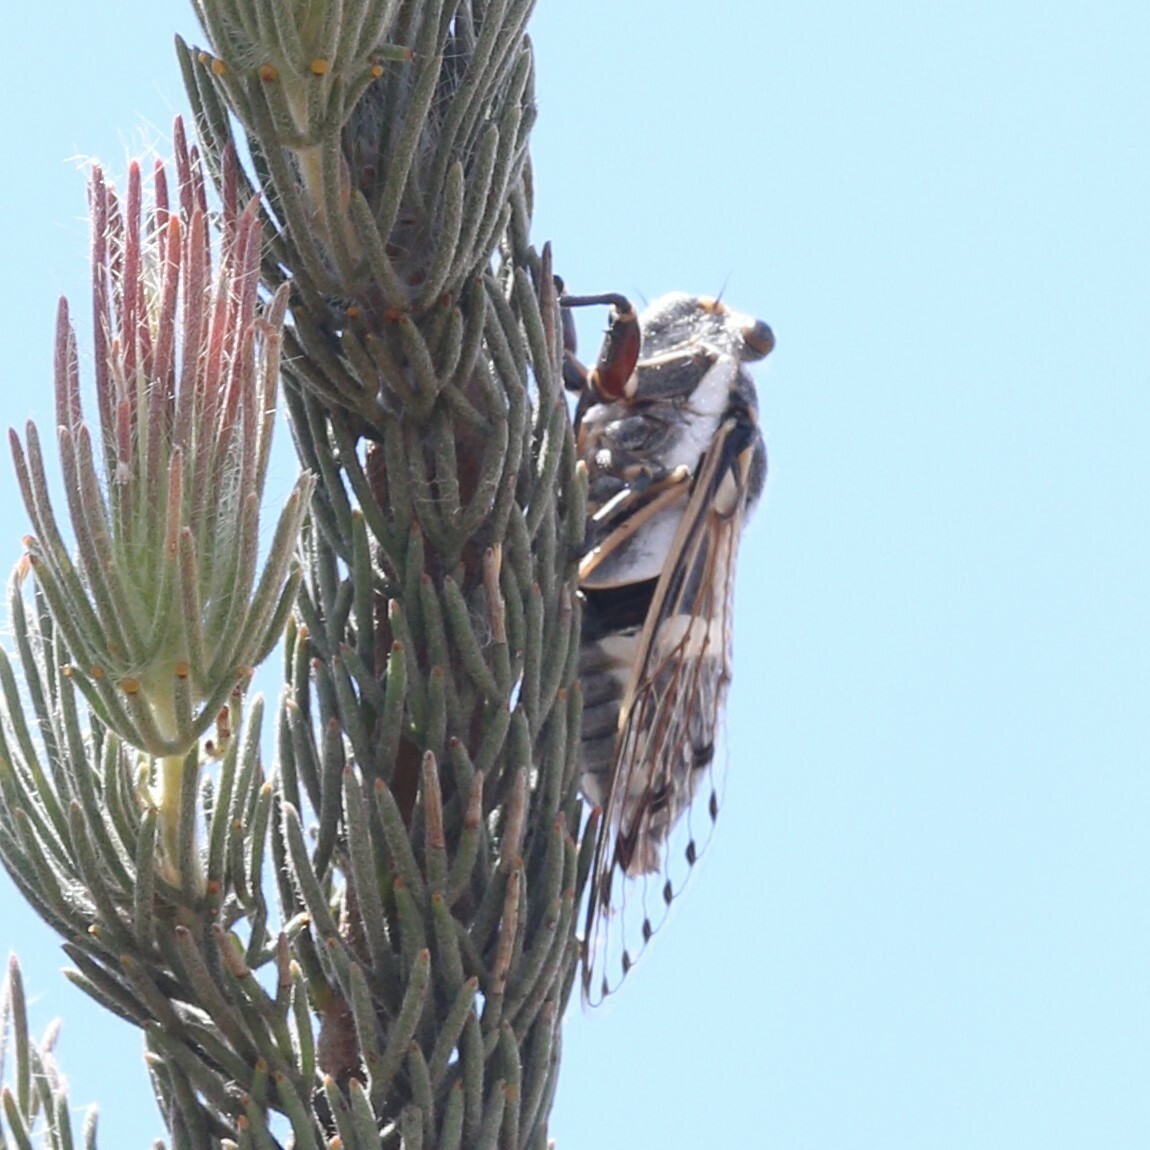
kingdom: Animalia
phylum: Arthropoda
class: Insecta
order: Hemiptera
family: Cicadidae
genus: Arenopsaltria
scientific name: Arenopsaltria fullo
